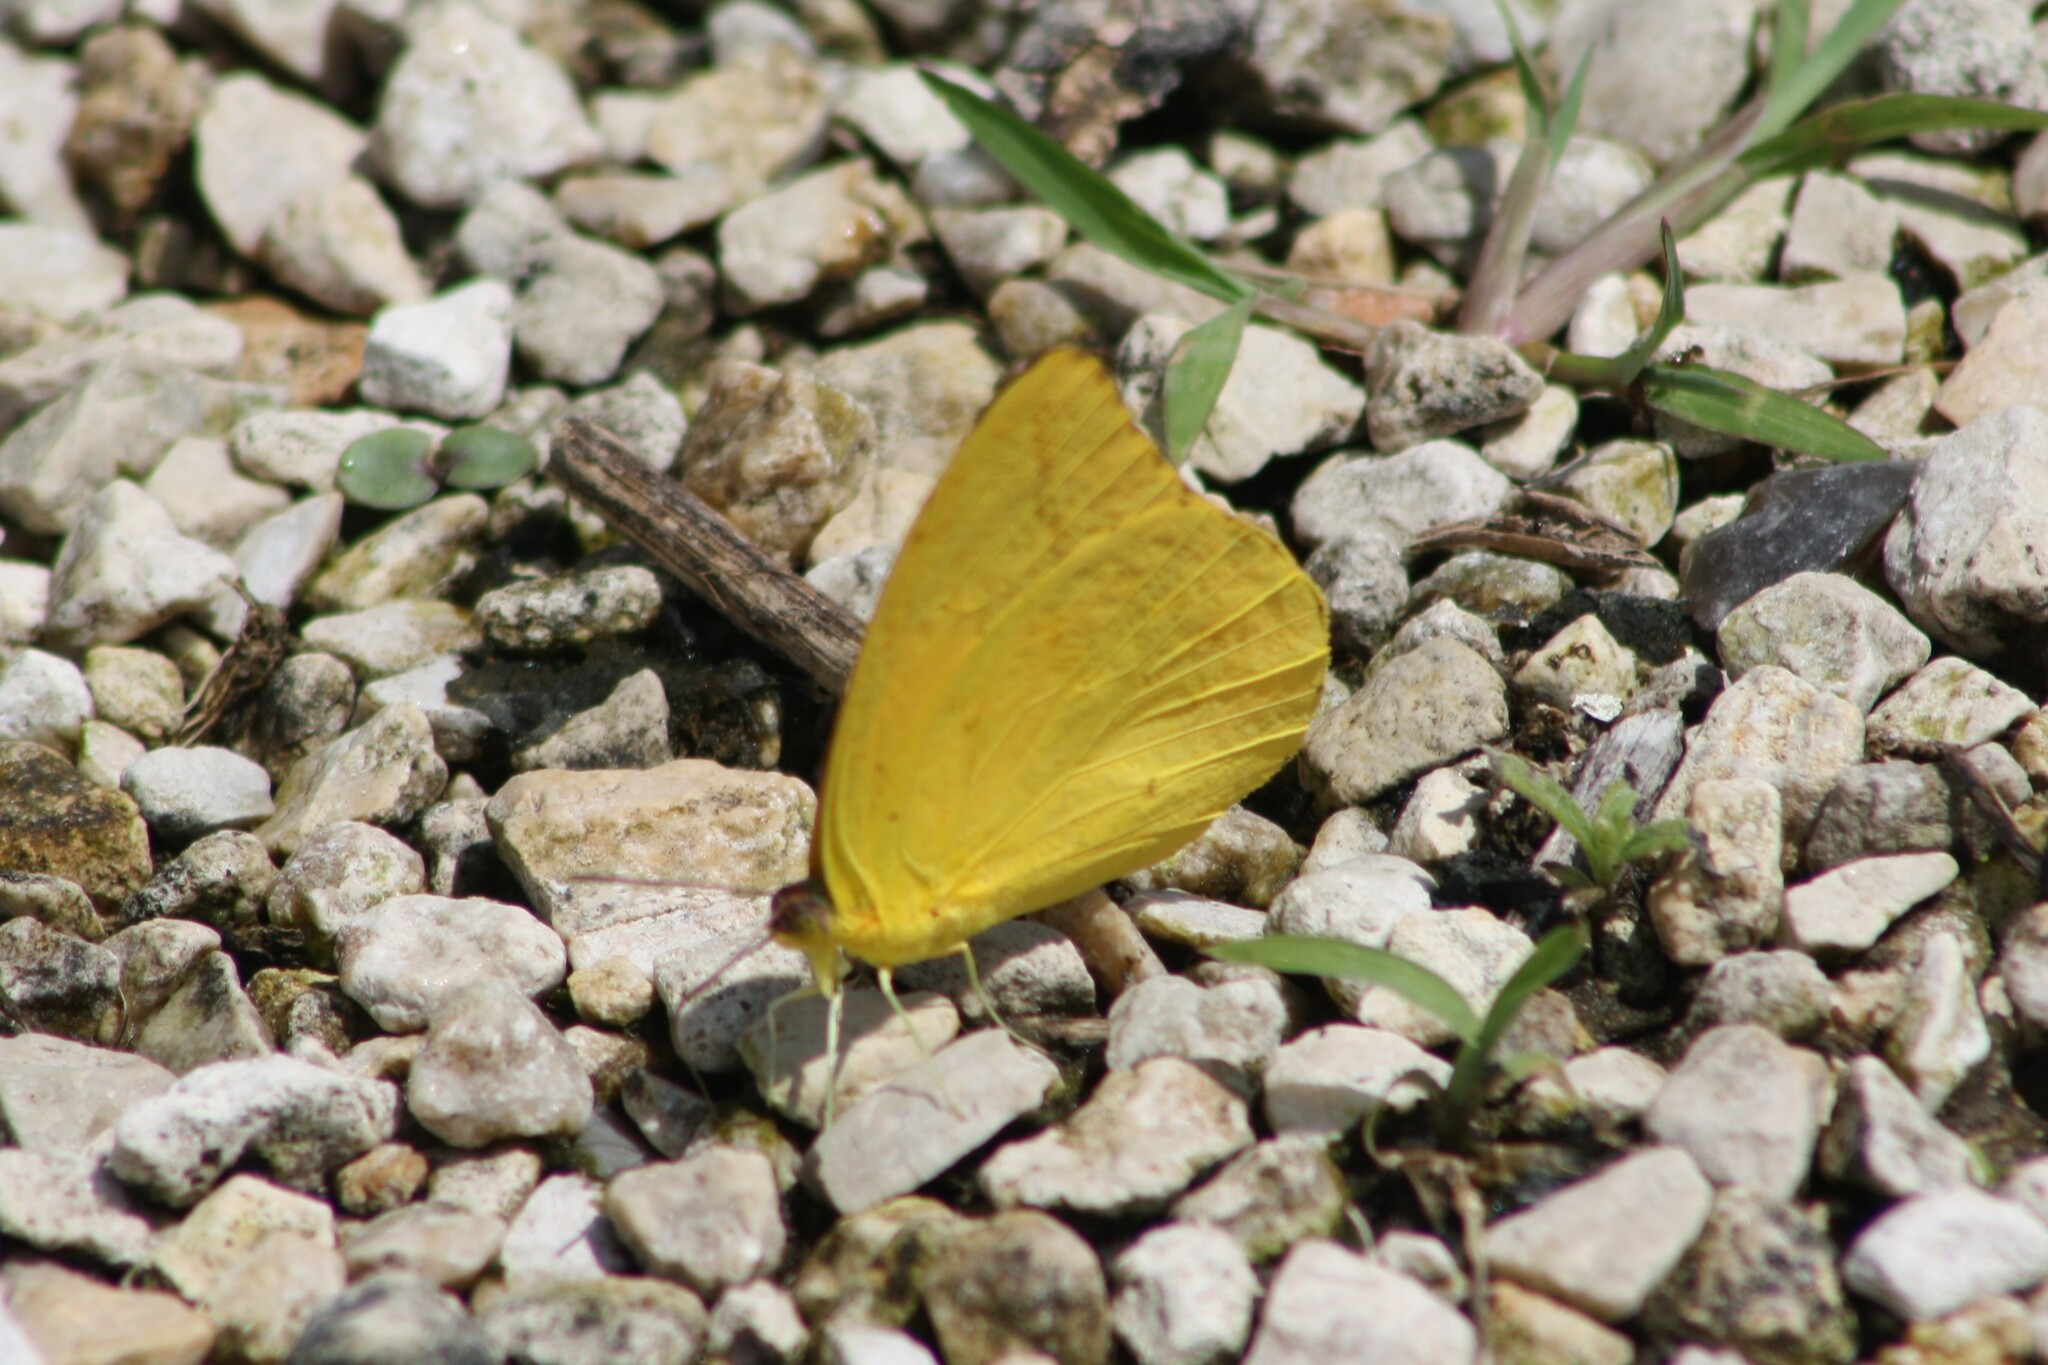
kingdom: Animalia
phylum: Arthropoda
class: Insecta
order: Lepidoptera
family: Pieridae
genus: Phoebis
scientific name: Phoebis agarithe
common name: Large orange sulphur
